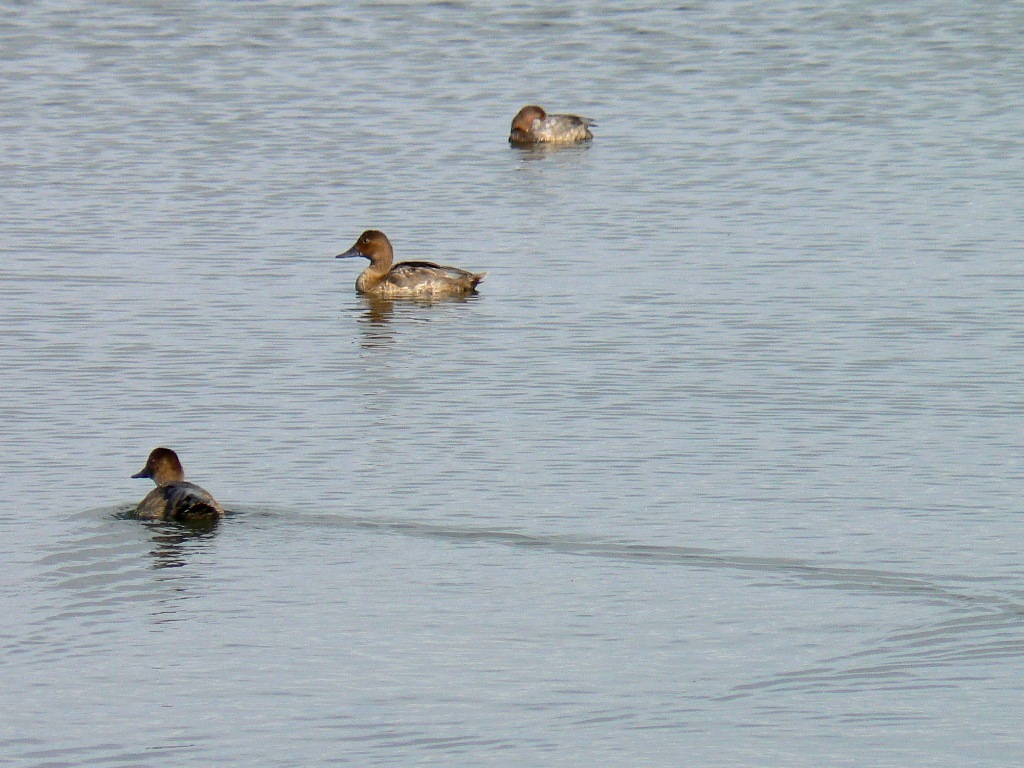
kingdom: Animalia
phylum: Chordata
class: Aves
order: Anseriformes
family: Anatidae
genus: Aythya
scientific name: Aythya ferina
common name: Common pochard
